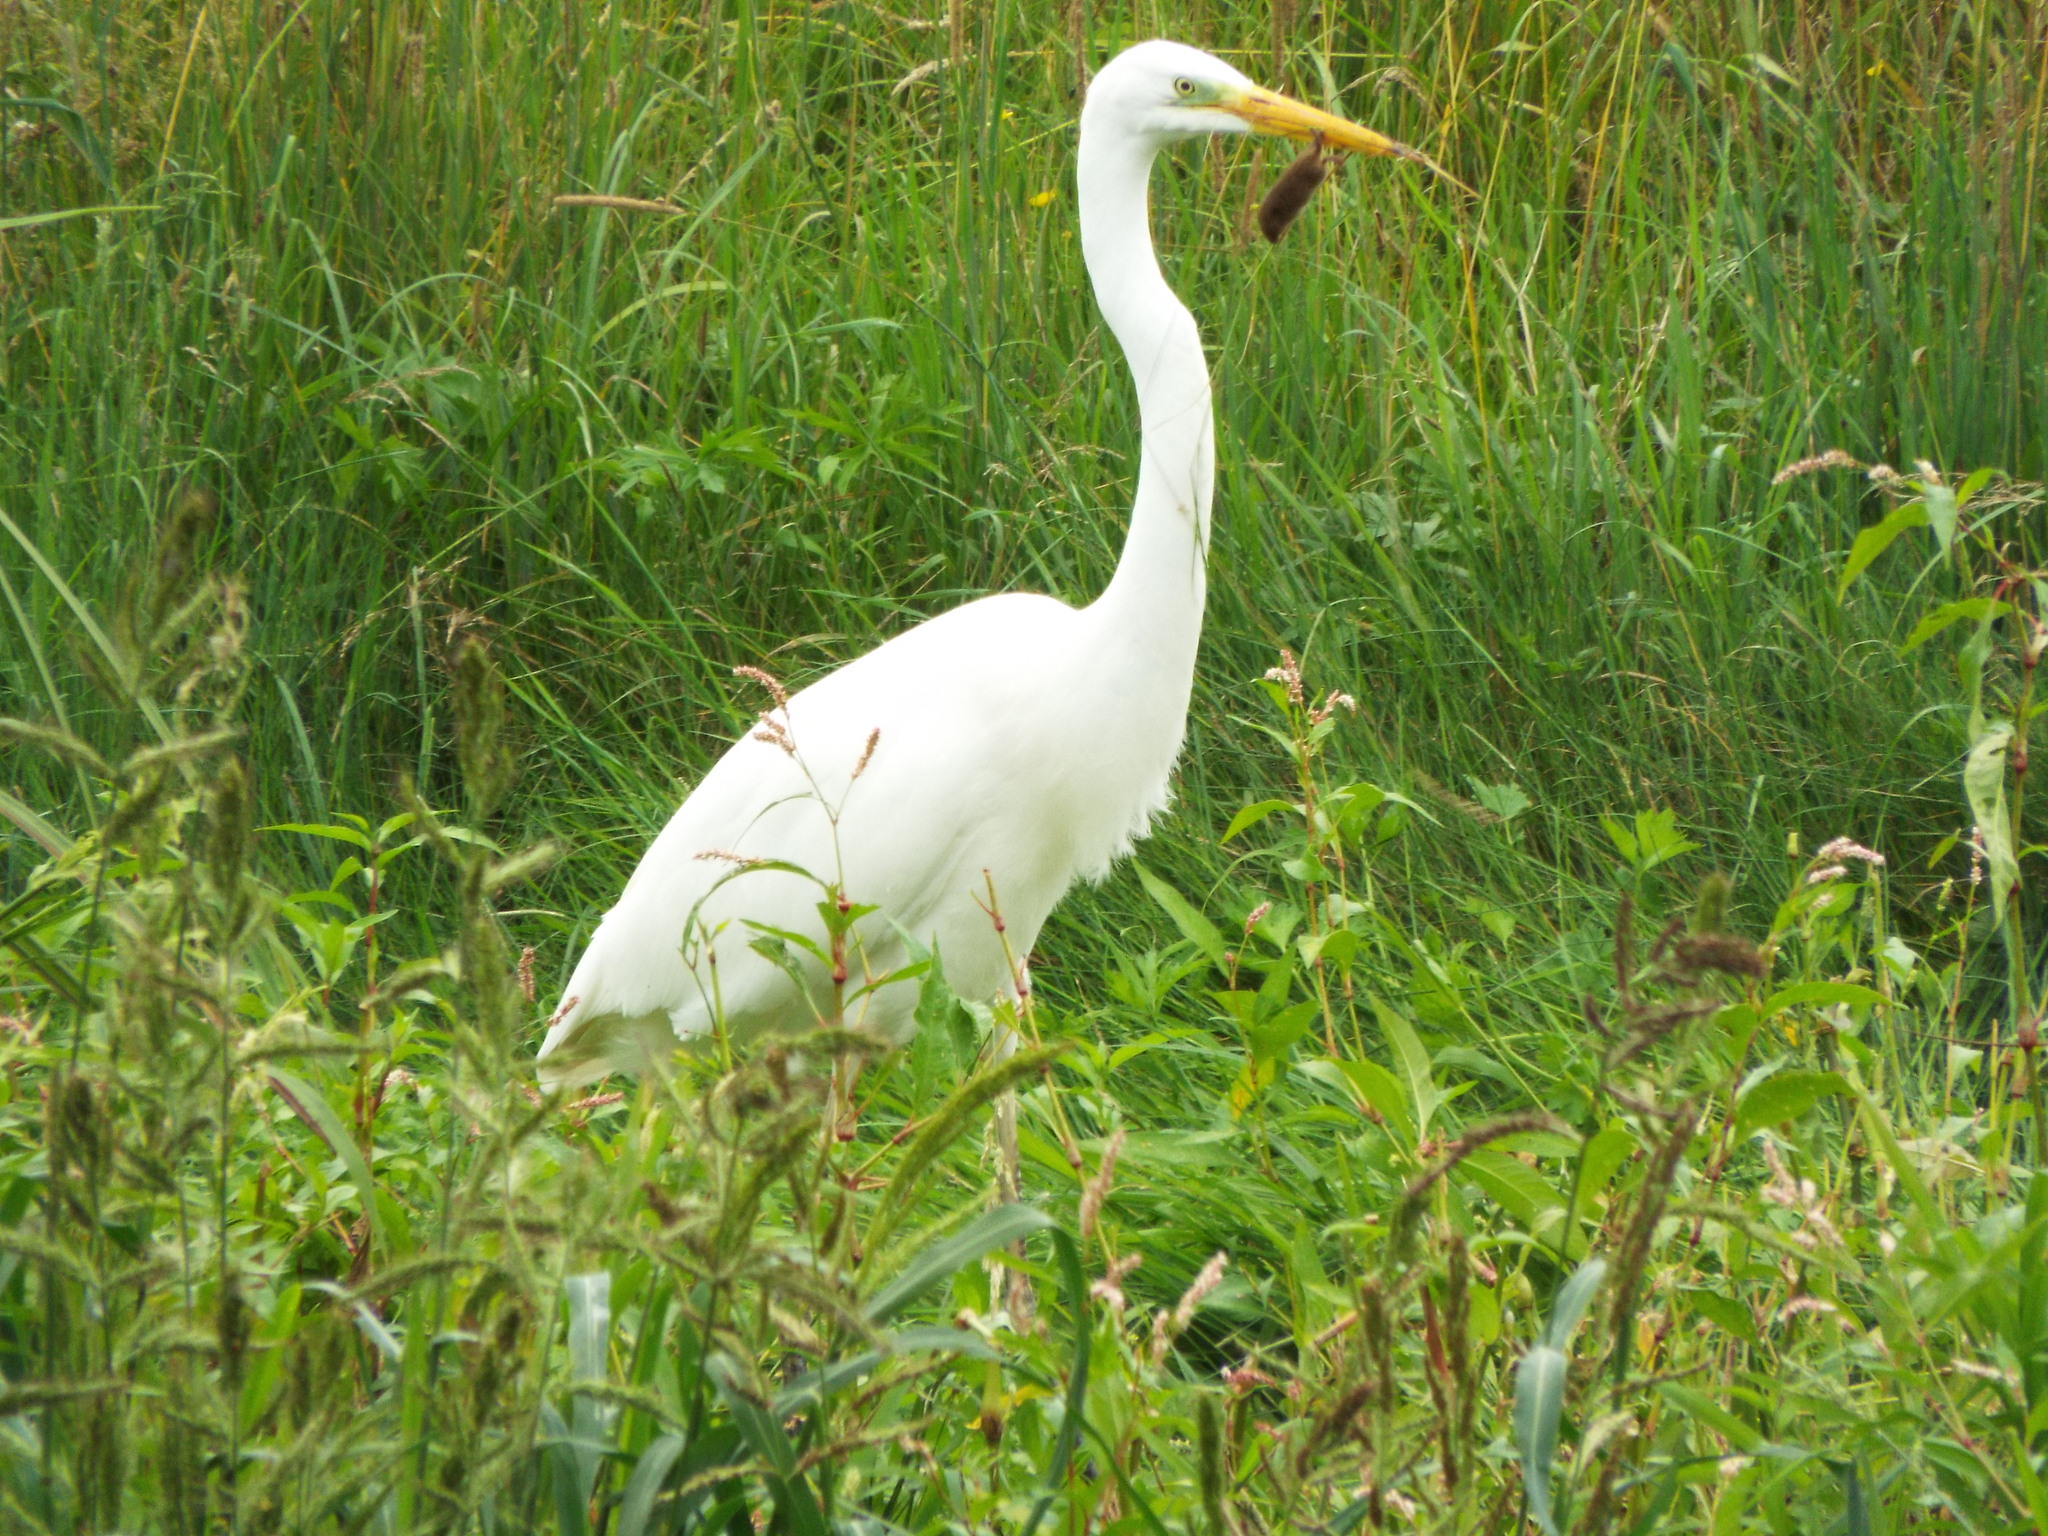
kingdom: Animalia
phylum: Chordata
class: Aves
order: Pelecaniformes
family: Ardeidae
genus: Ardea
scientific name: Ardea alba
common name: Great egret
